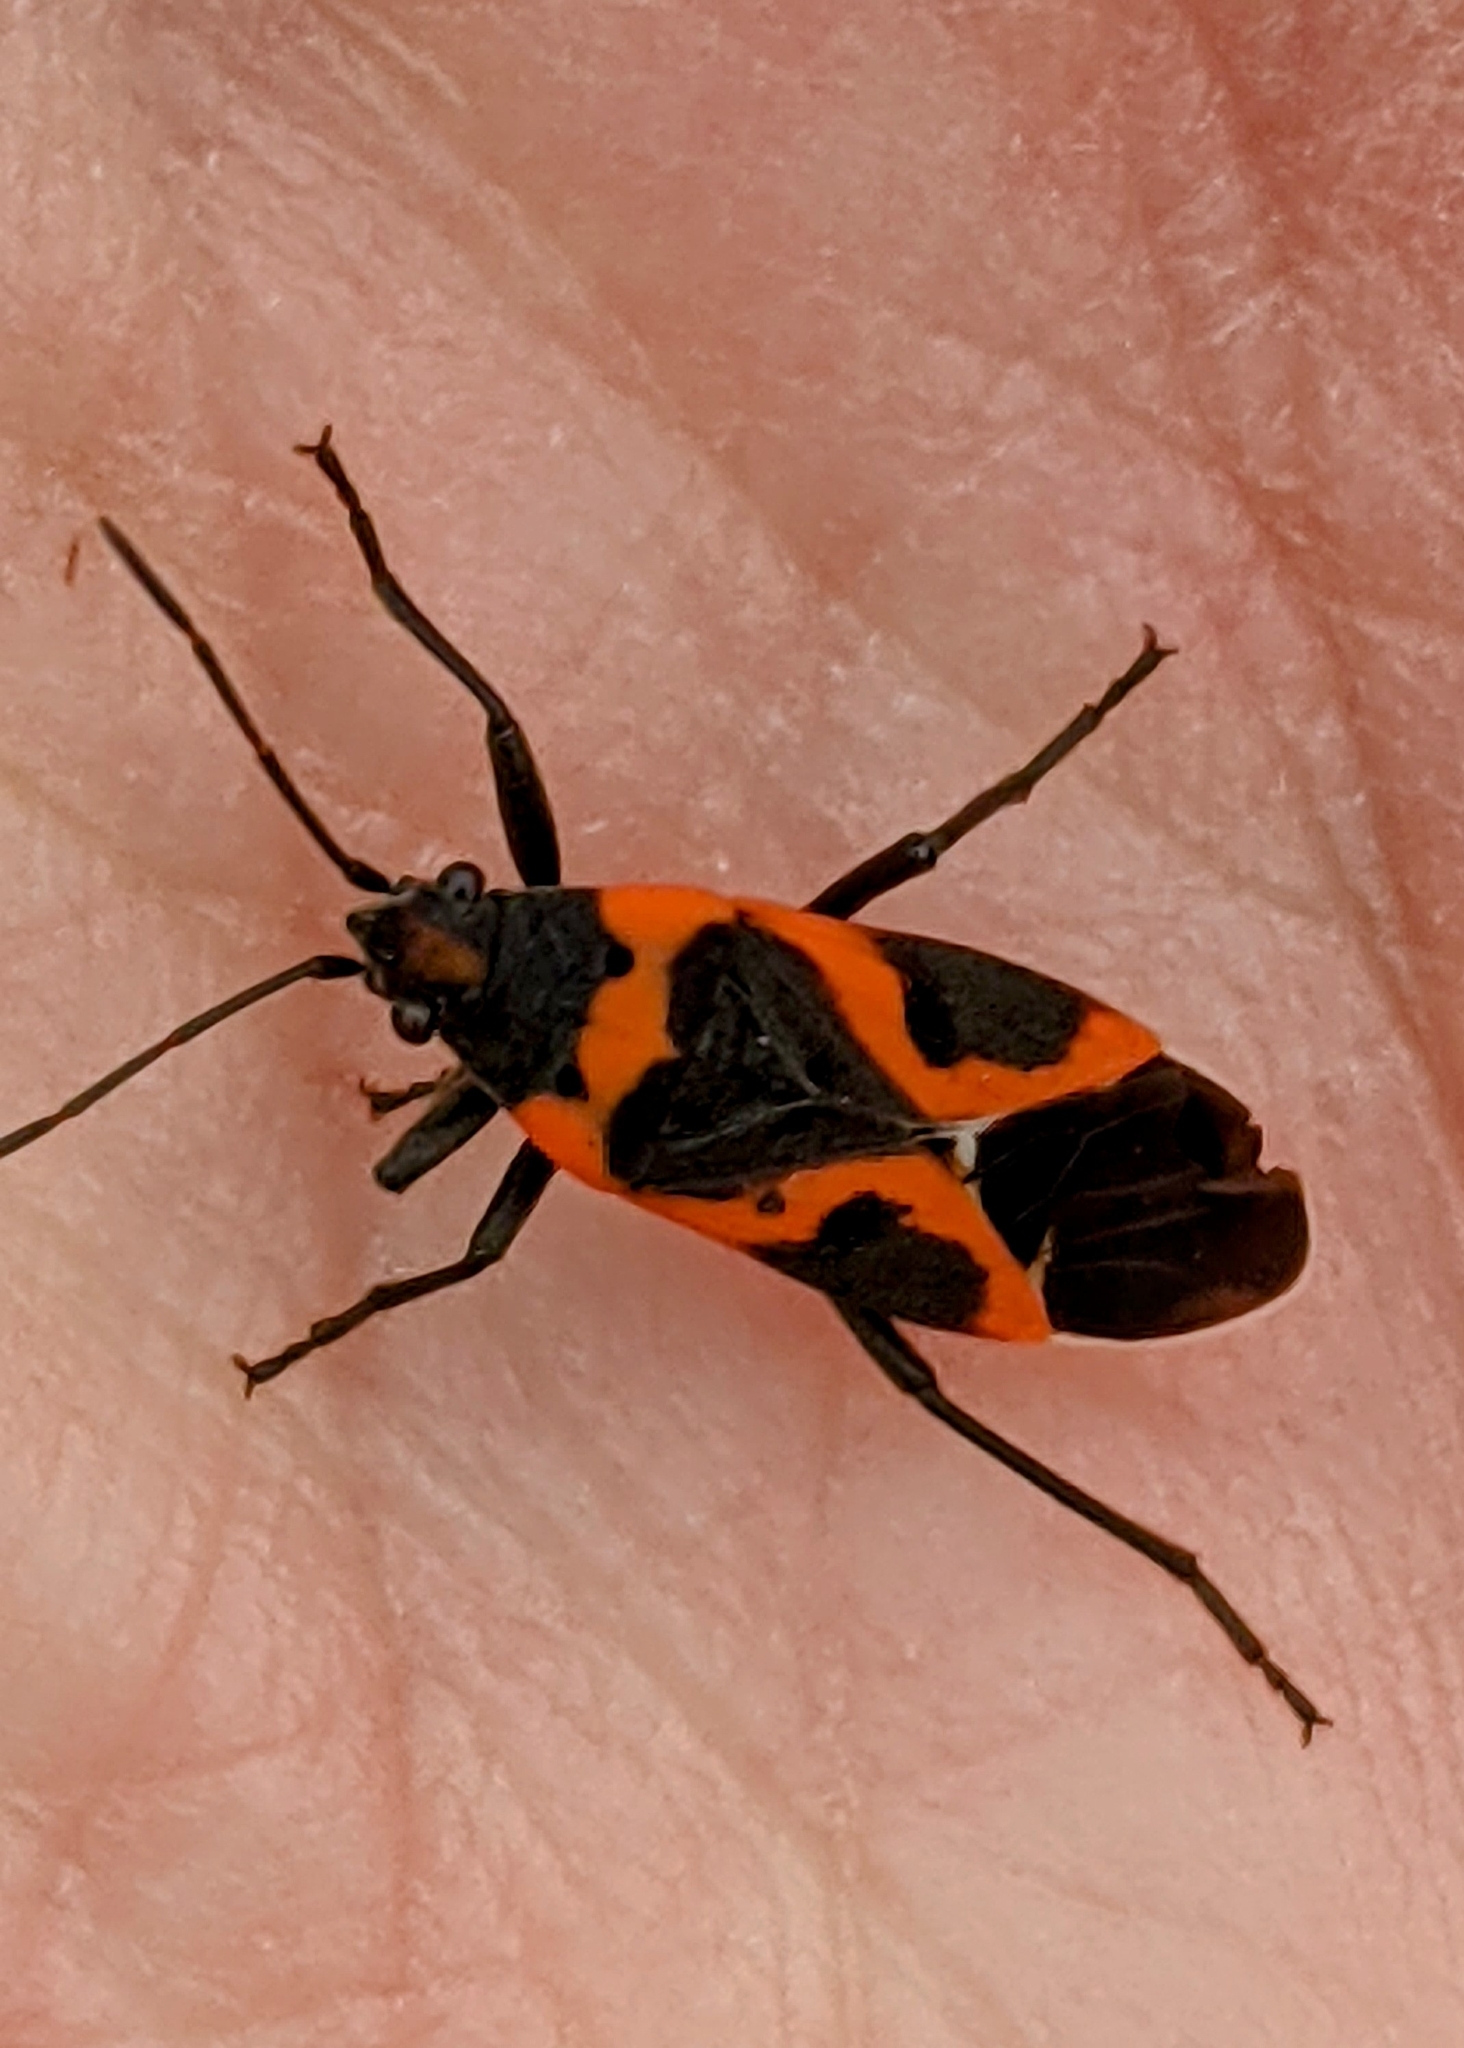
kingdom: Animalia
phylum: Arthropoda
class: Insecta
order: Hemiptera
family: Lygaeidae
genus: Lygaeus
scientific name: Lygaeus kalmii
